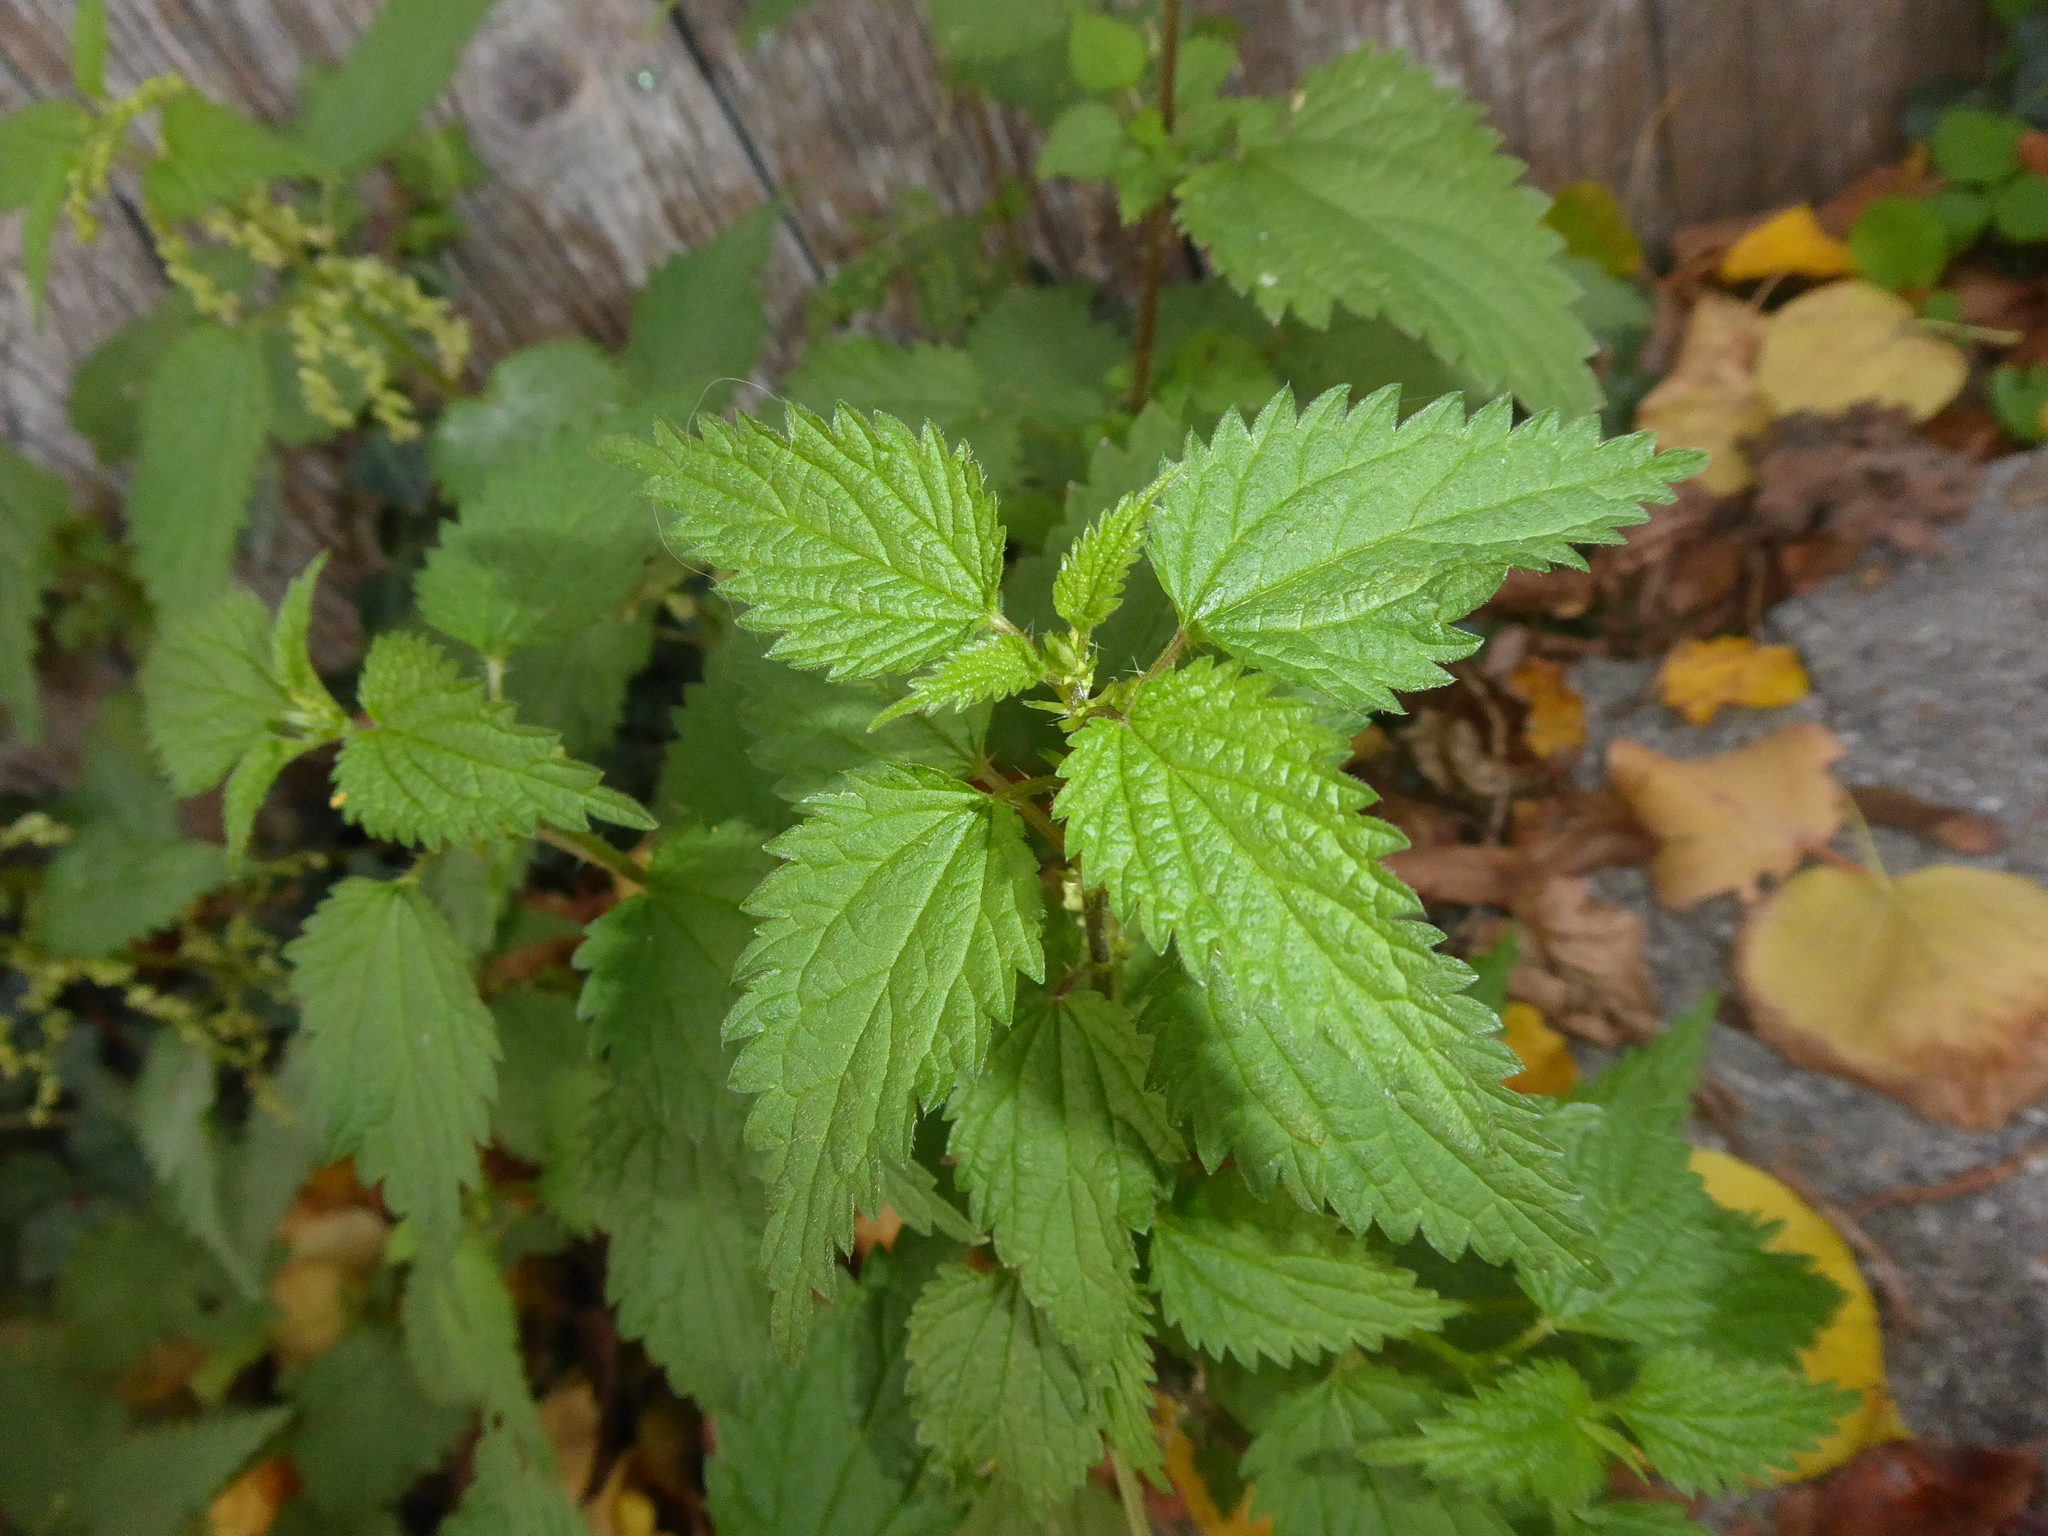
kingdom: Plantae
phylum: Tracheophyta
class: Magnoliopsida
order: Rosales
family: Urticaceae
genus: Urtica
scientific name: Urtica dioica
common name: Common nettle
